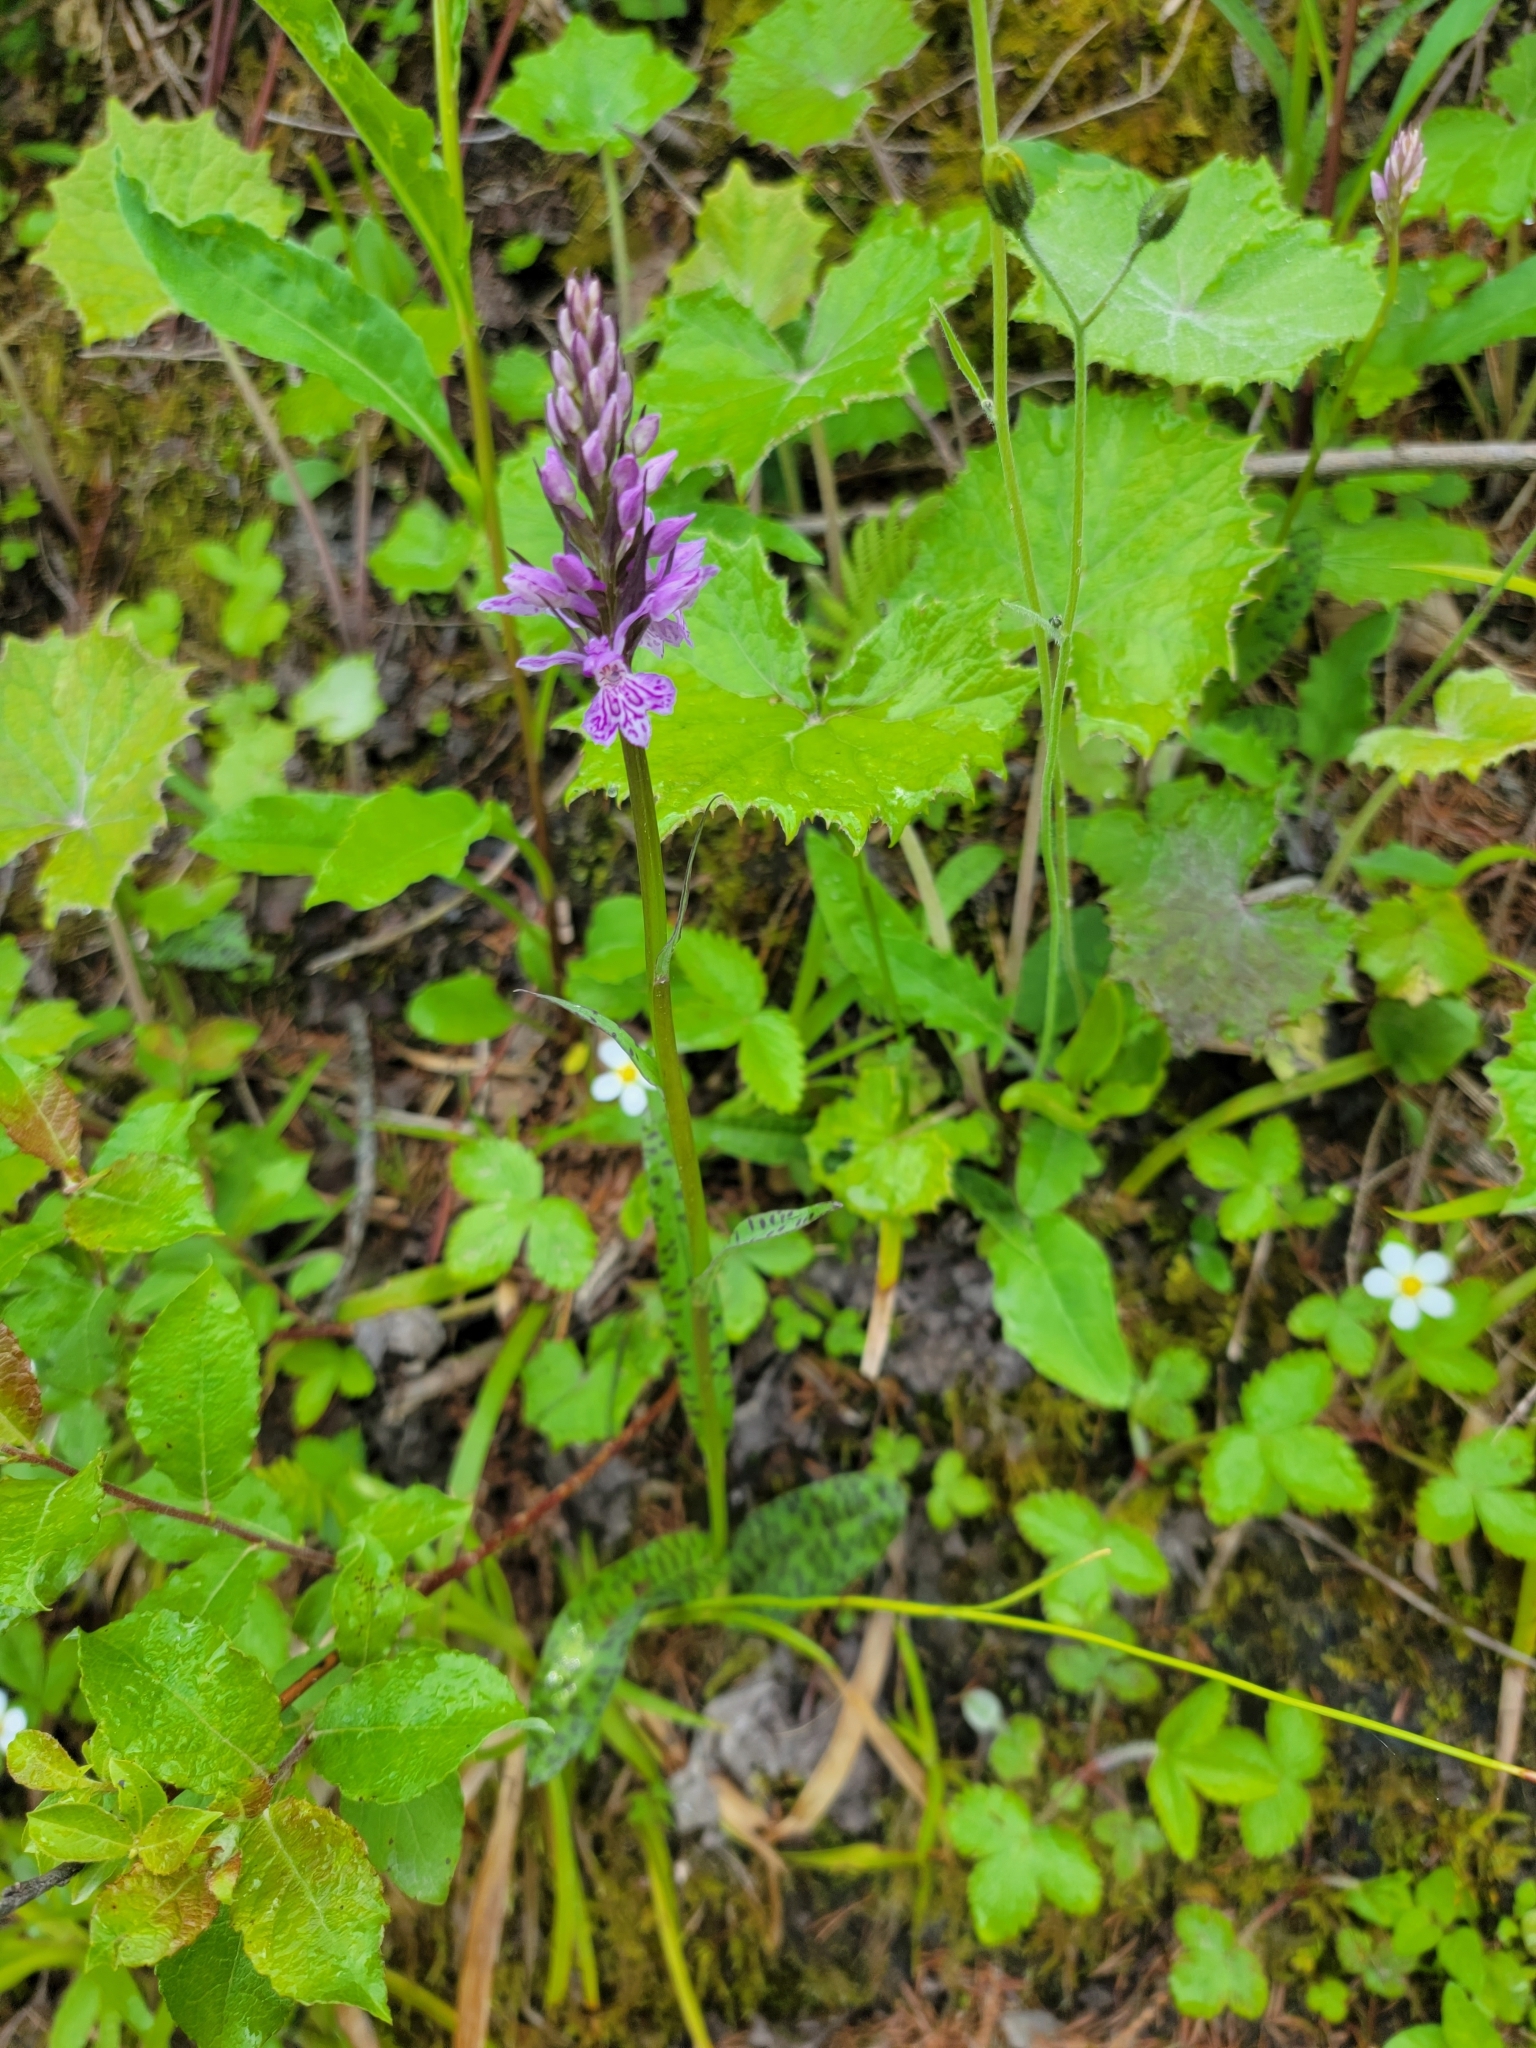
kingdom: Plantae
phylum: Tracheophyta
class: Liliopsida
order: Asparagales
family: Orchidaceae
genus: Dactylorhiza
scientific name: Dactylorhiza maculata
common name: Heath spotted-orchid
